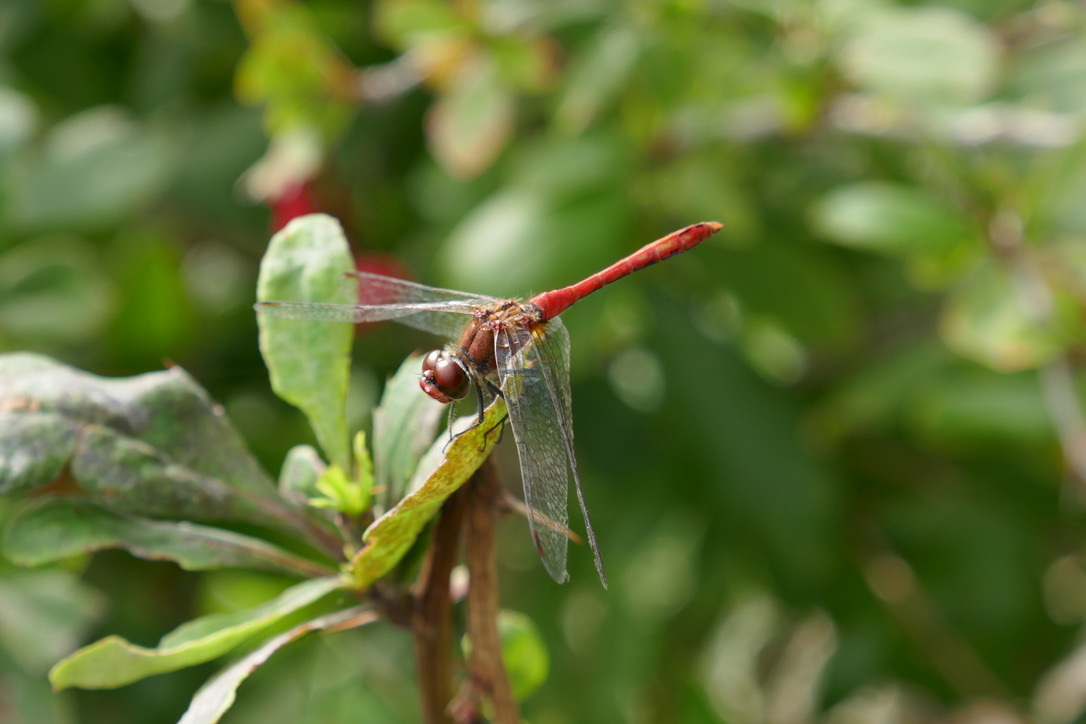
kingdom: Animalia
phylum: Arthropoda
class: Insecta
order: Odonata
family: Libellulidae
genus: Sympetrum
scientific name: Sympetrum sanguineum
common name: Ruddy darter
